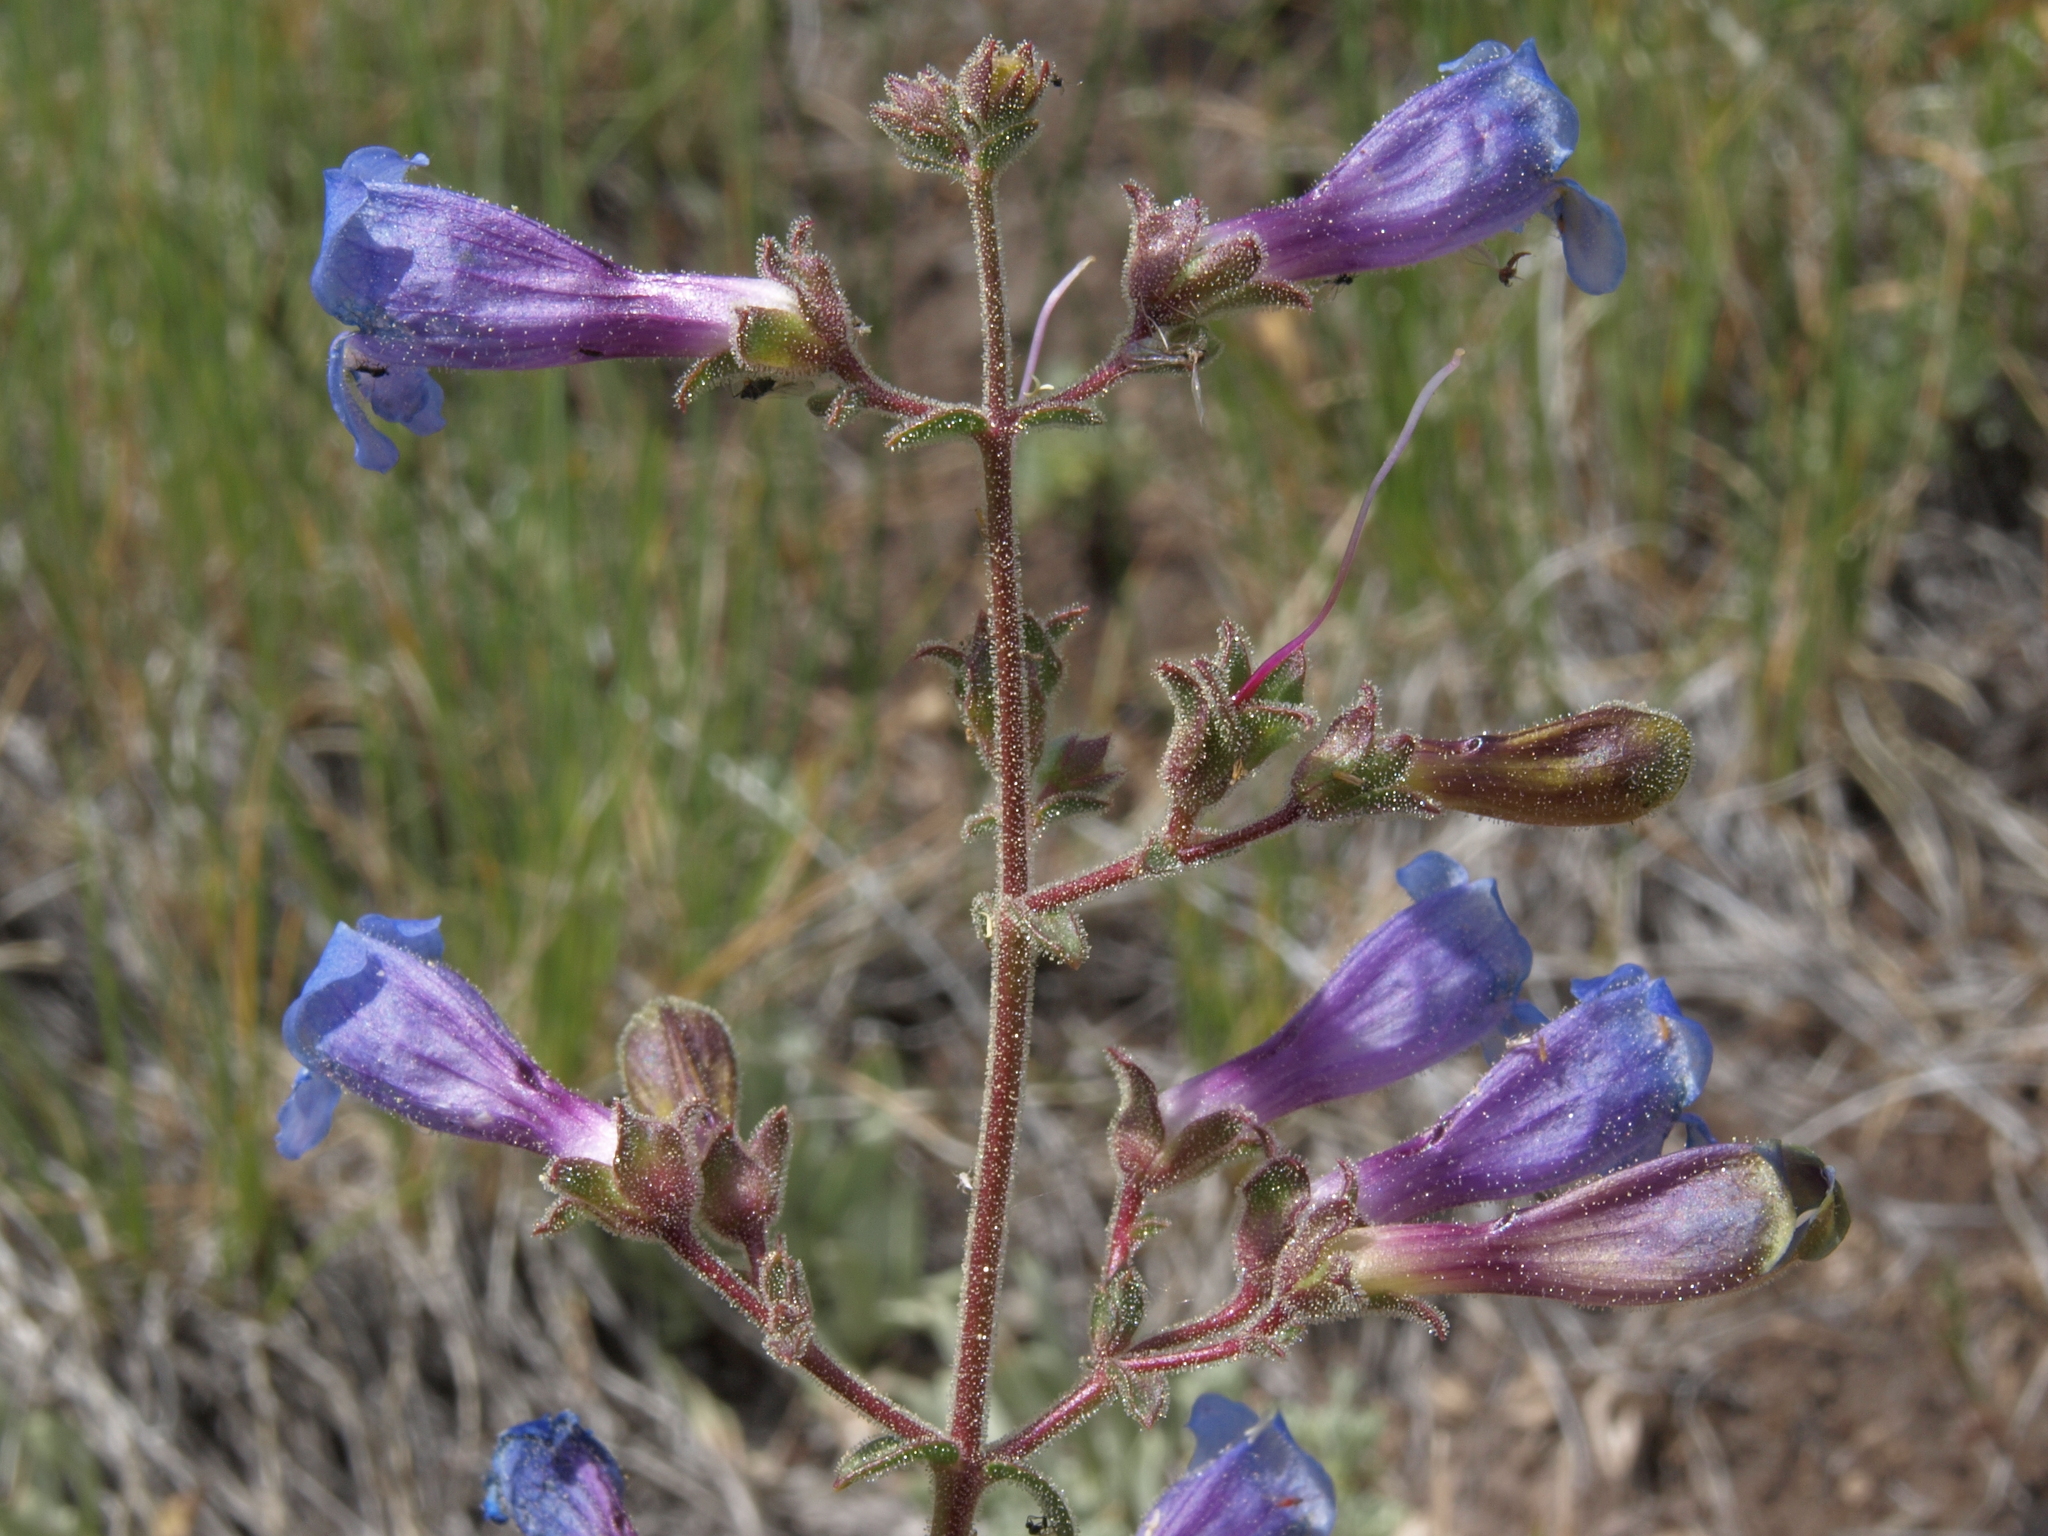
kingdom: Plantae
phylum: Tracheophyta
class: Magnoliopsida
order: Lamiales
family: Plantaginaceae
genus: Penstemon
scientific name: Penstemon roezlii
